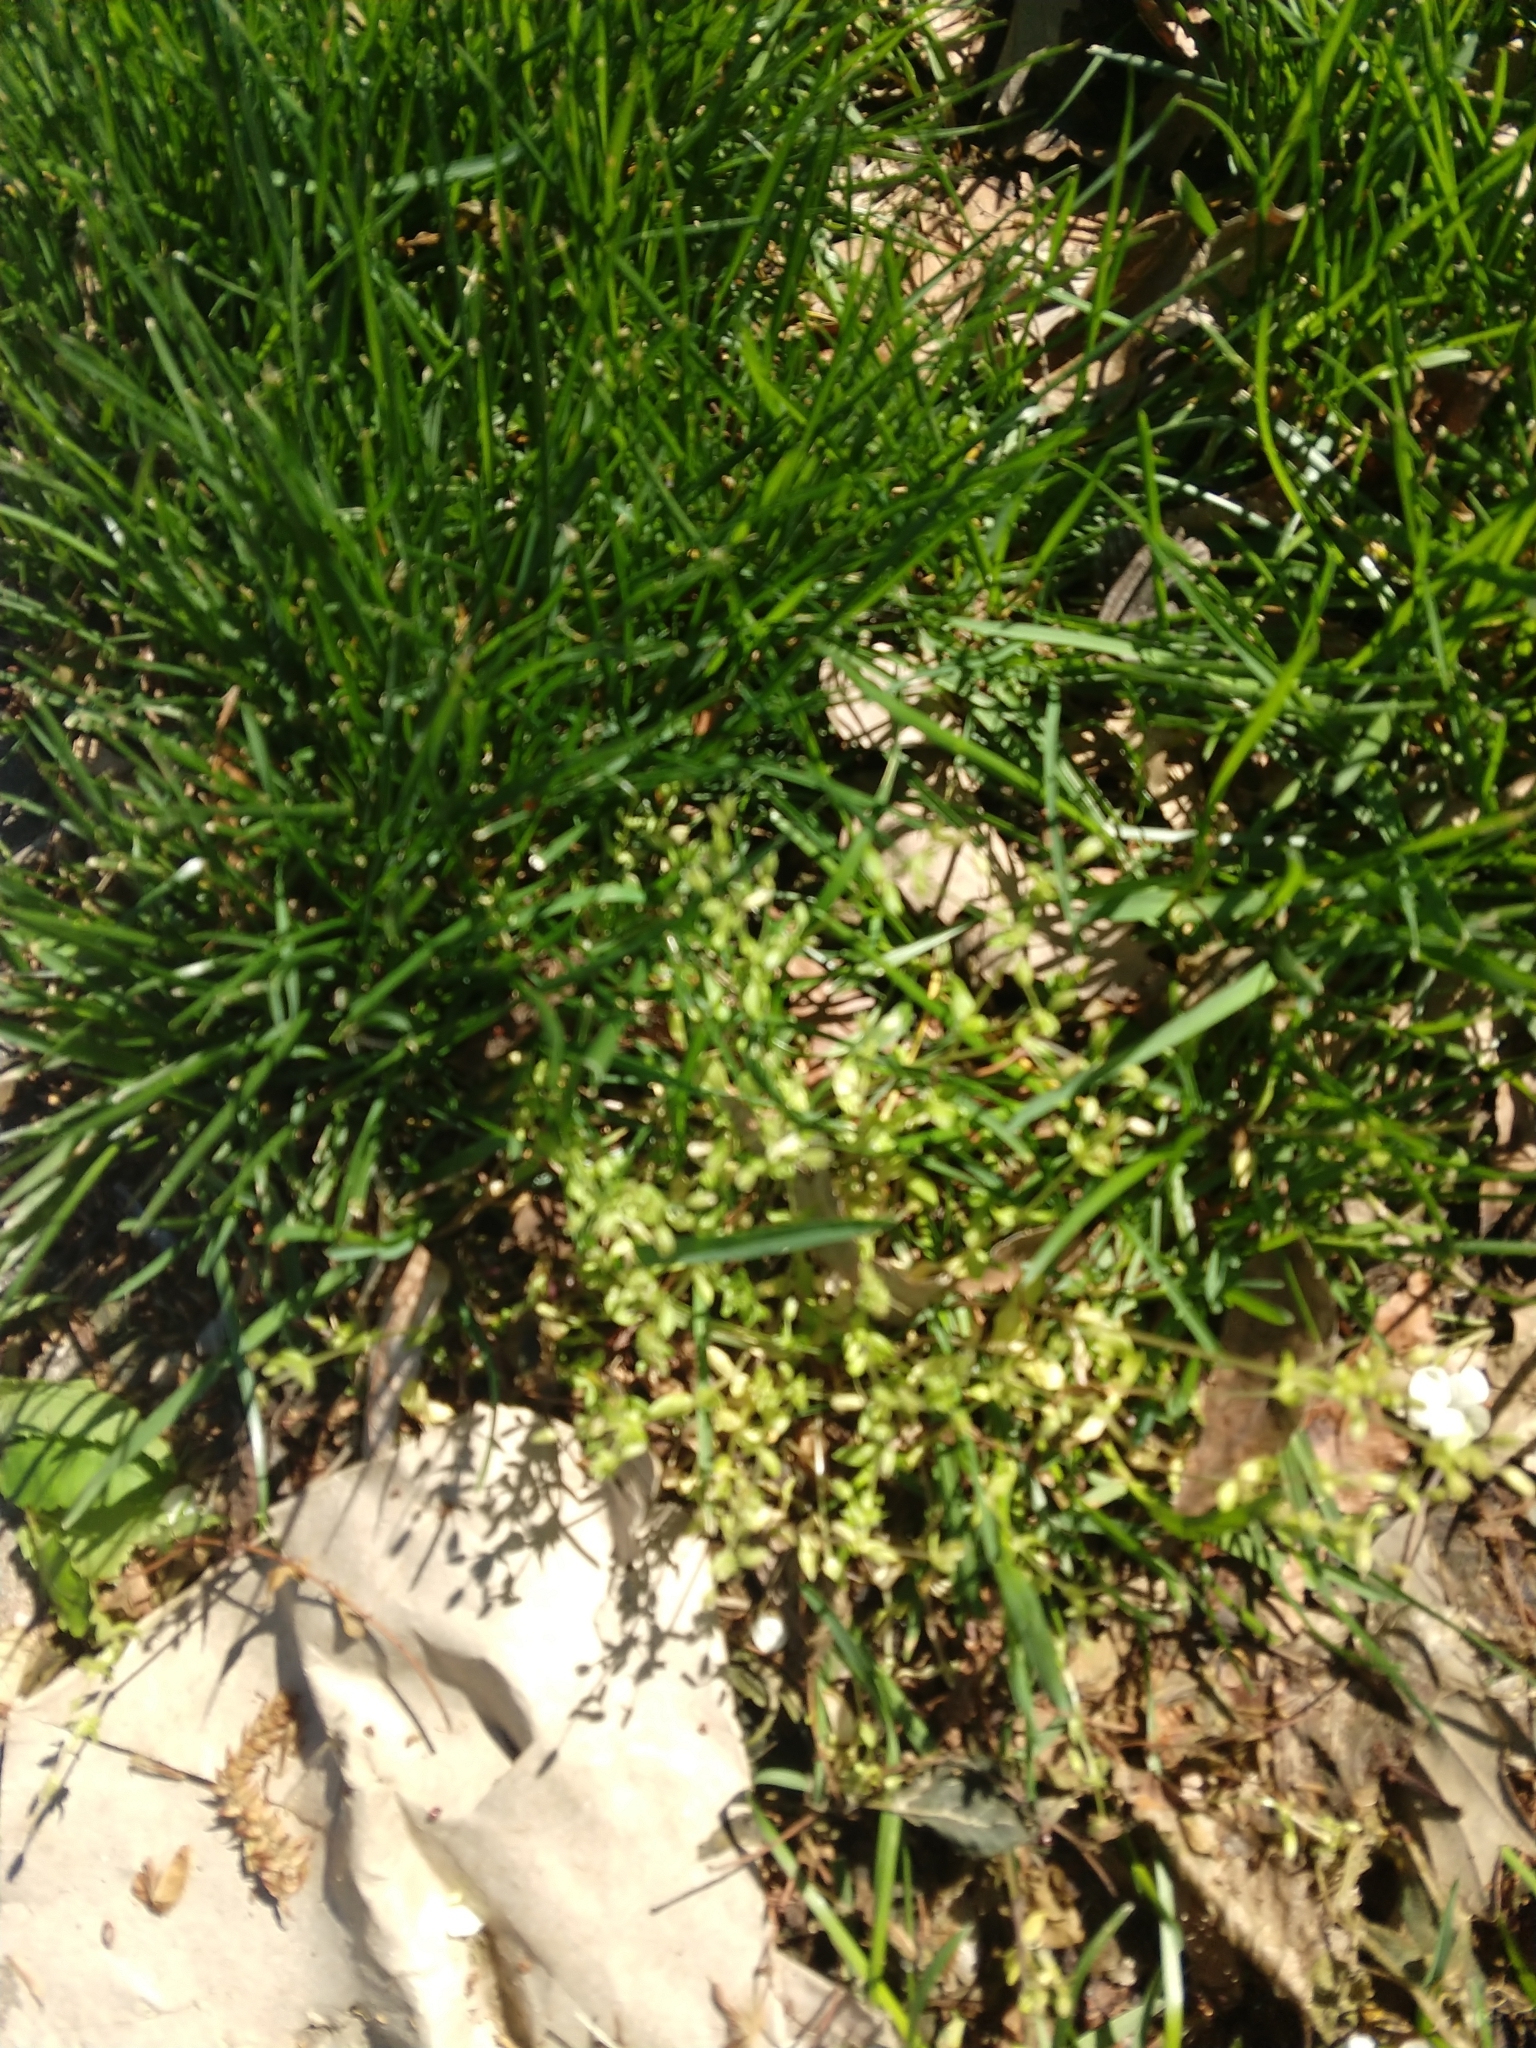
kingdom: Plantae
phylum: Tracheophyta
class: Magnoliopsida
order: Caryophyllales
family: Caryophyllaceae
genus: Stellaria
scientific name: Stellaria media
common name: Common chickweed
